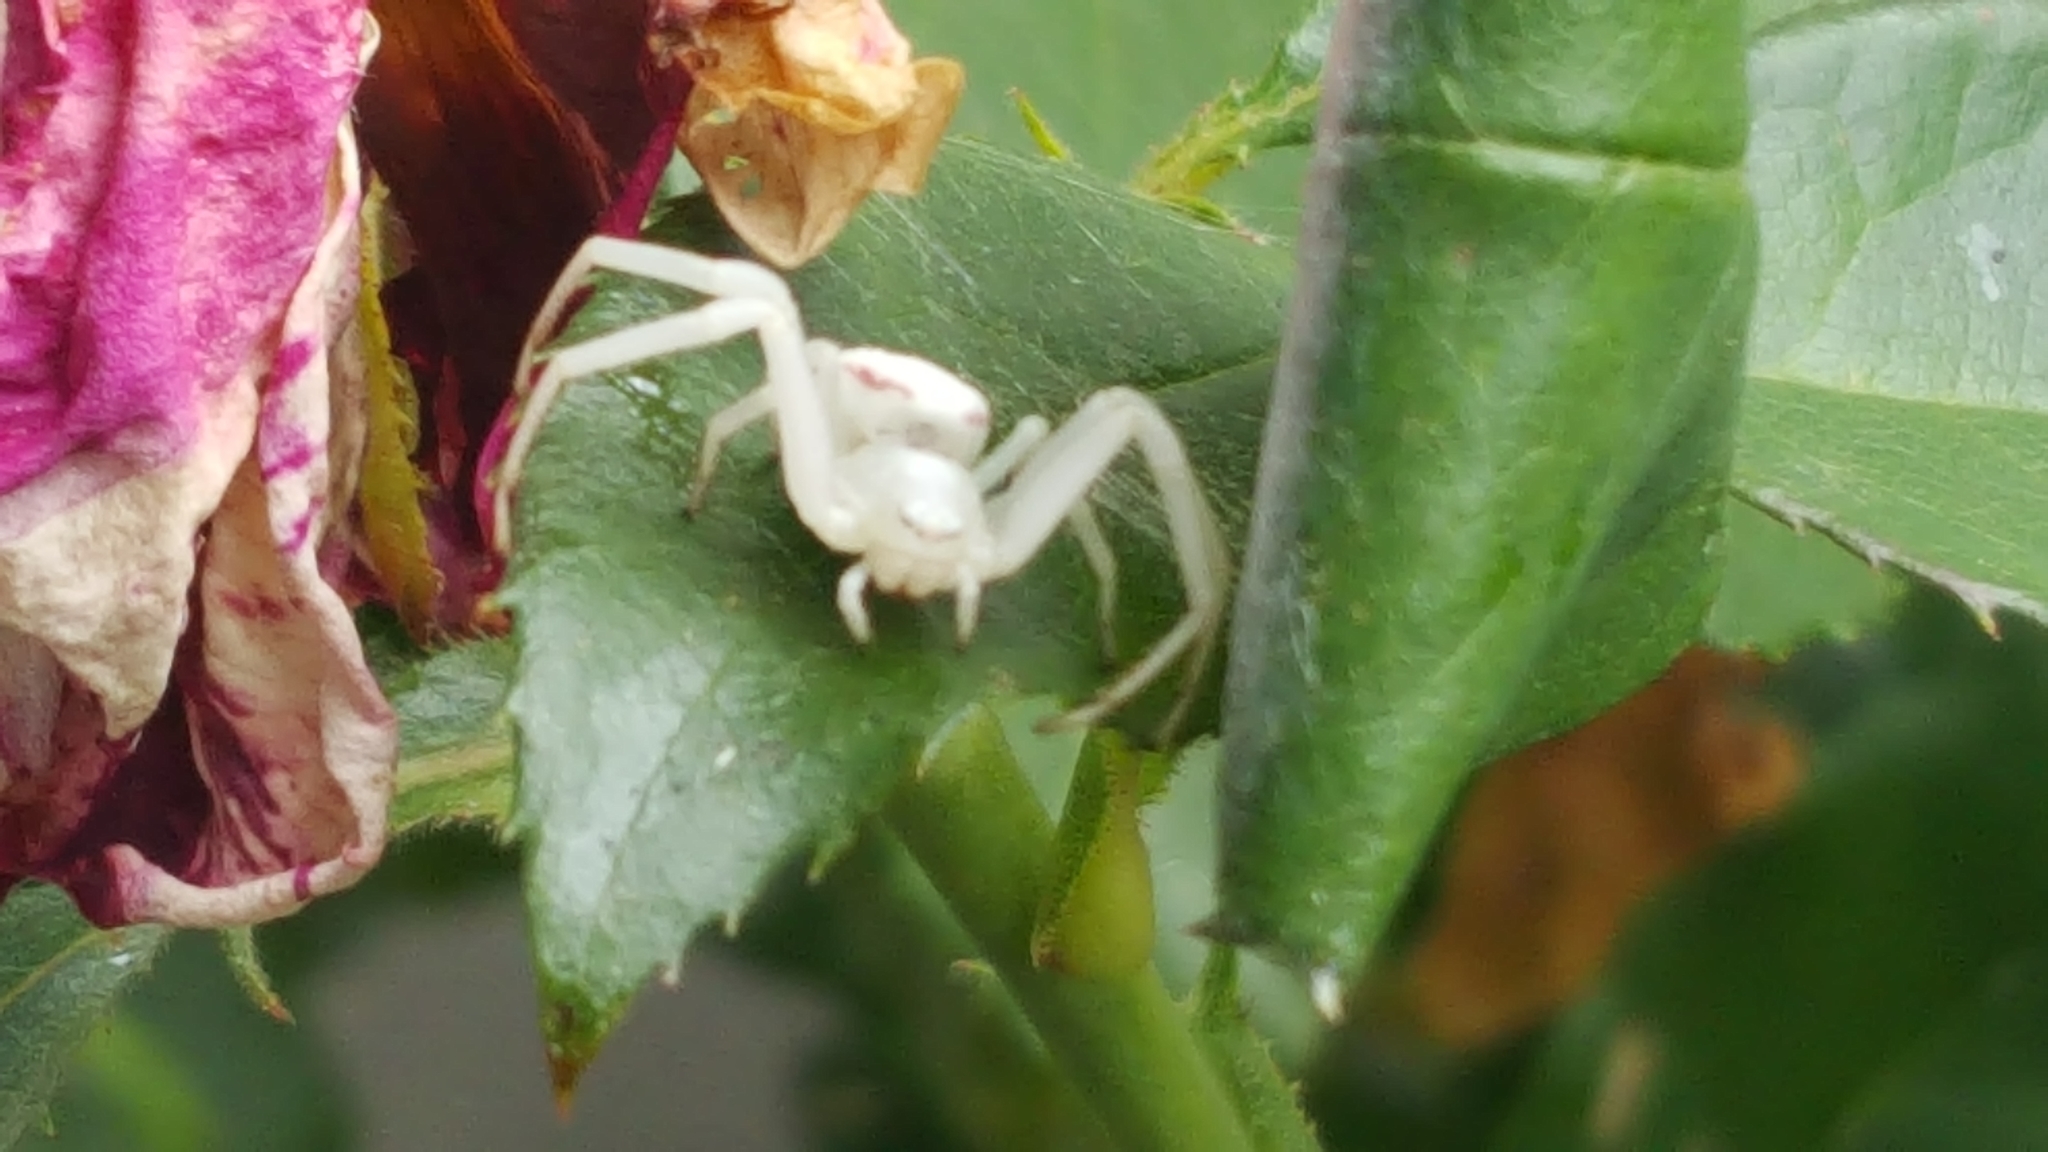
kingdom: Animalia
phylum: Arthropoda
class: Arachnida
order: Araneae
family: Thomisidae
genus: Misumena
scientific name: Misumena vatia
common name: Goldenrod crab spider
